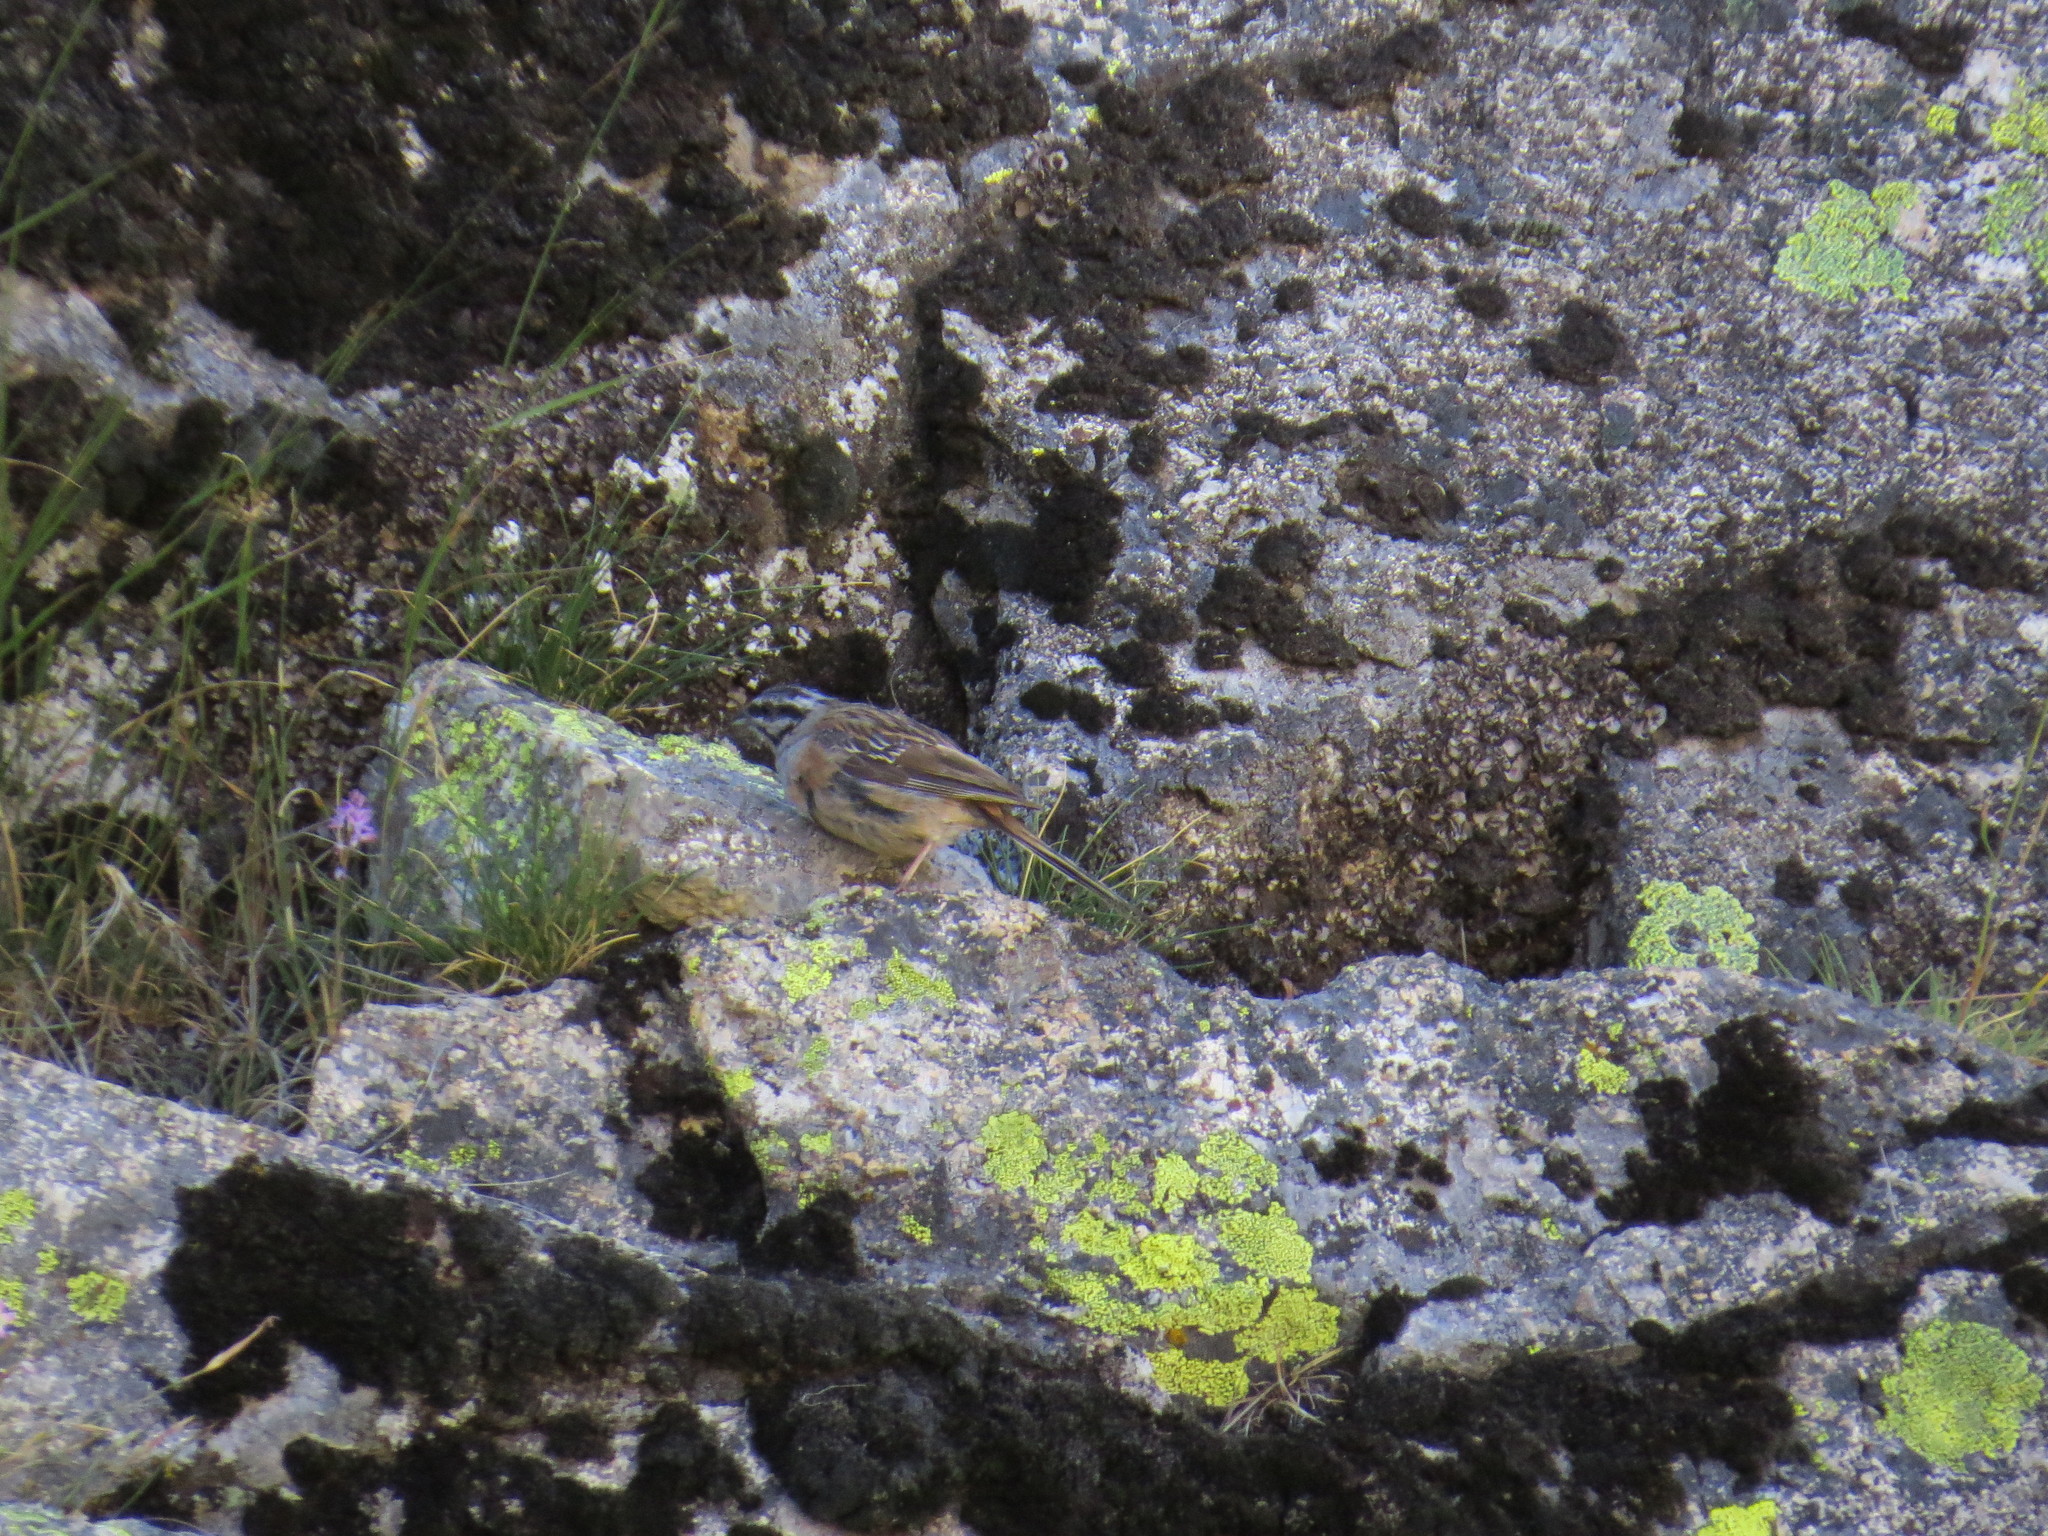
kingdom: Animalia
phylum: Chordata
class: Aves
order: Passeriformes
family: Emberizidae
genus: Emberiza
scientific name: Emberiza cia
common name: Rock bunting
